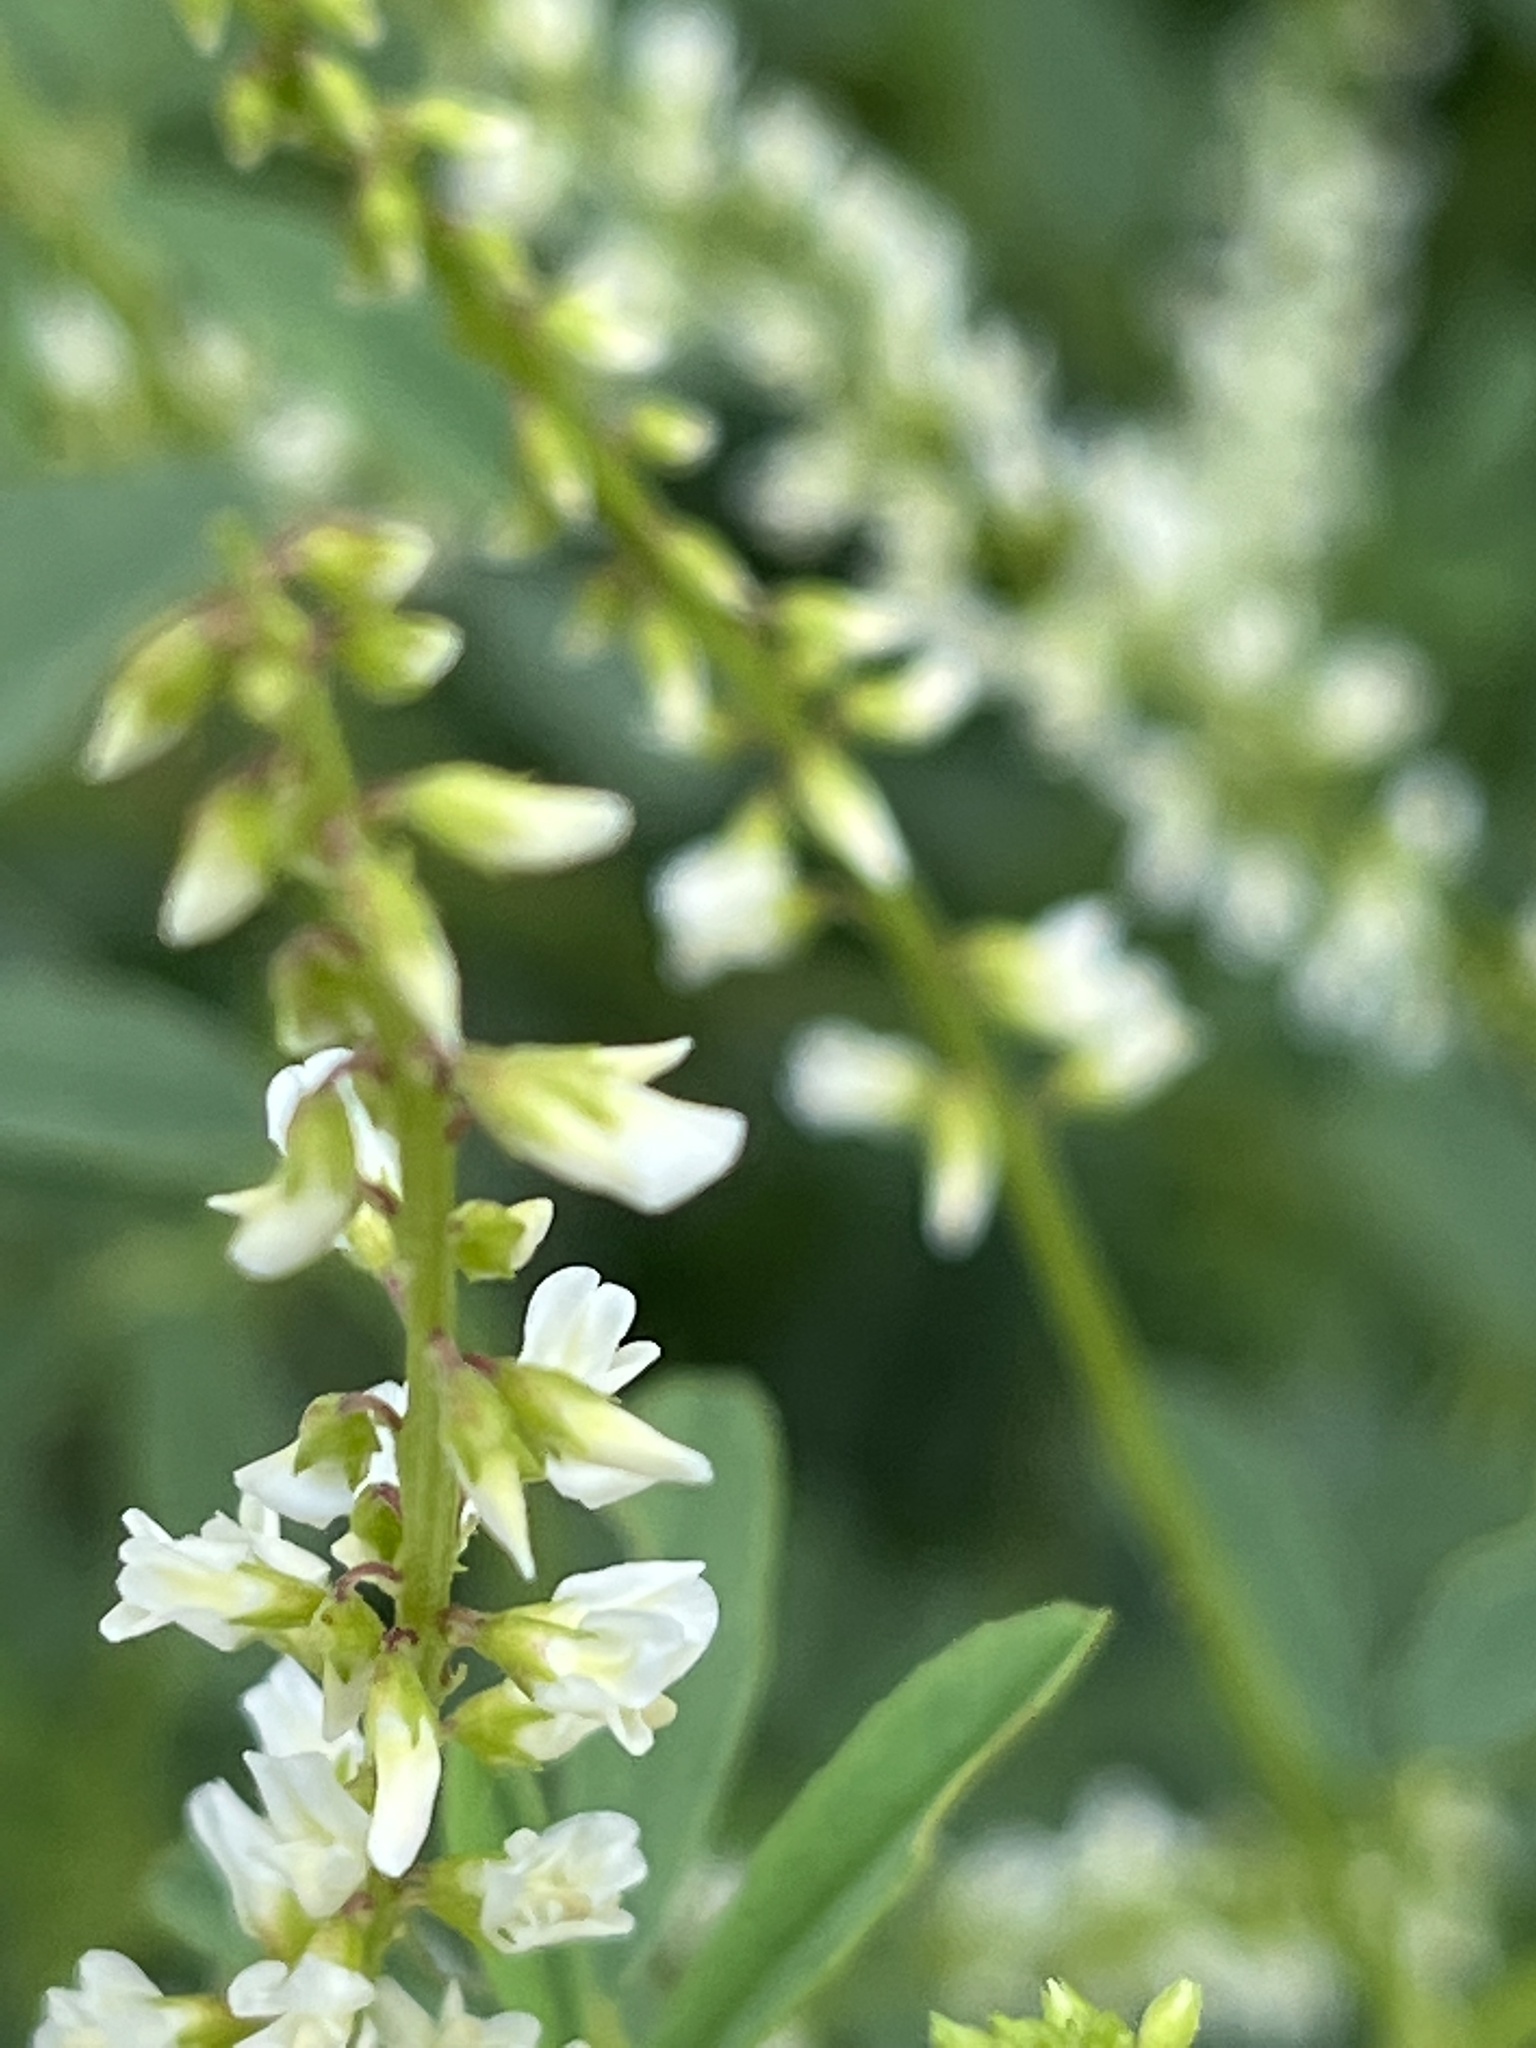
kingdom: Plantae
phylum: Tracheophyta
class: Magnoliopsida
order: Fabales
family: Fabaceae
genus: Melilotus
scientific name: Melilotus albus
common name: White melilot
